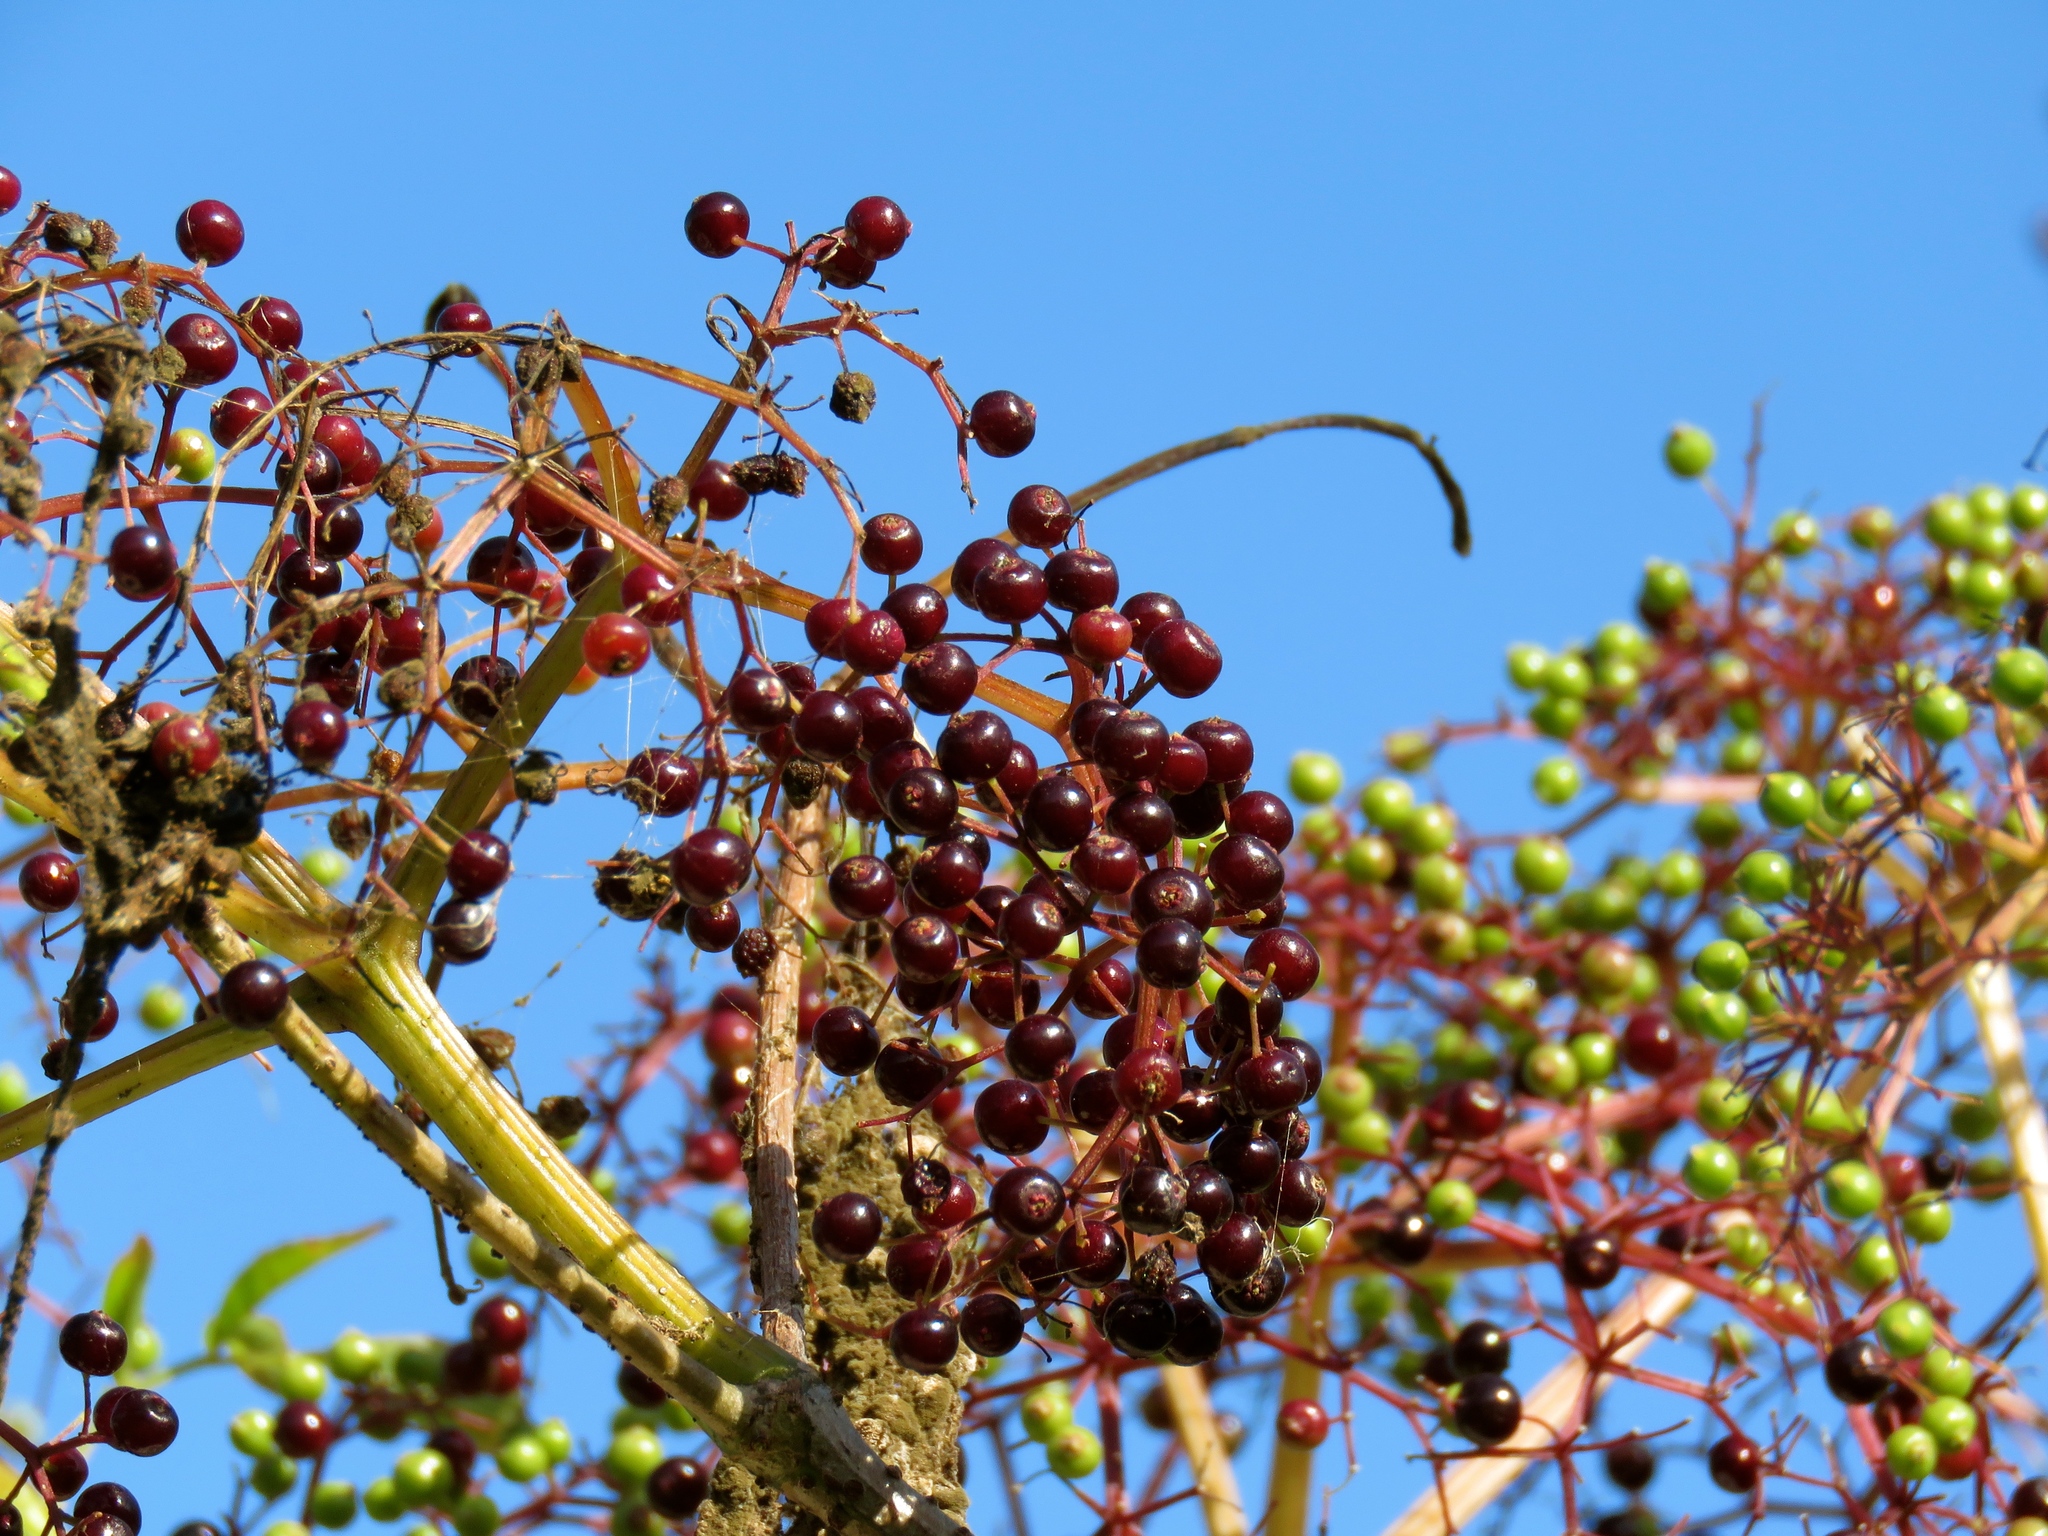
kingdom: Plantae
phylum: Tracheophyta
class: Magnoliopsida
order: Dipsacales
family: Viburnaceae
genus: Sambucus
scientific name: Sambucus canadensis
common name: American elder
